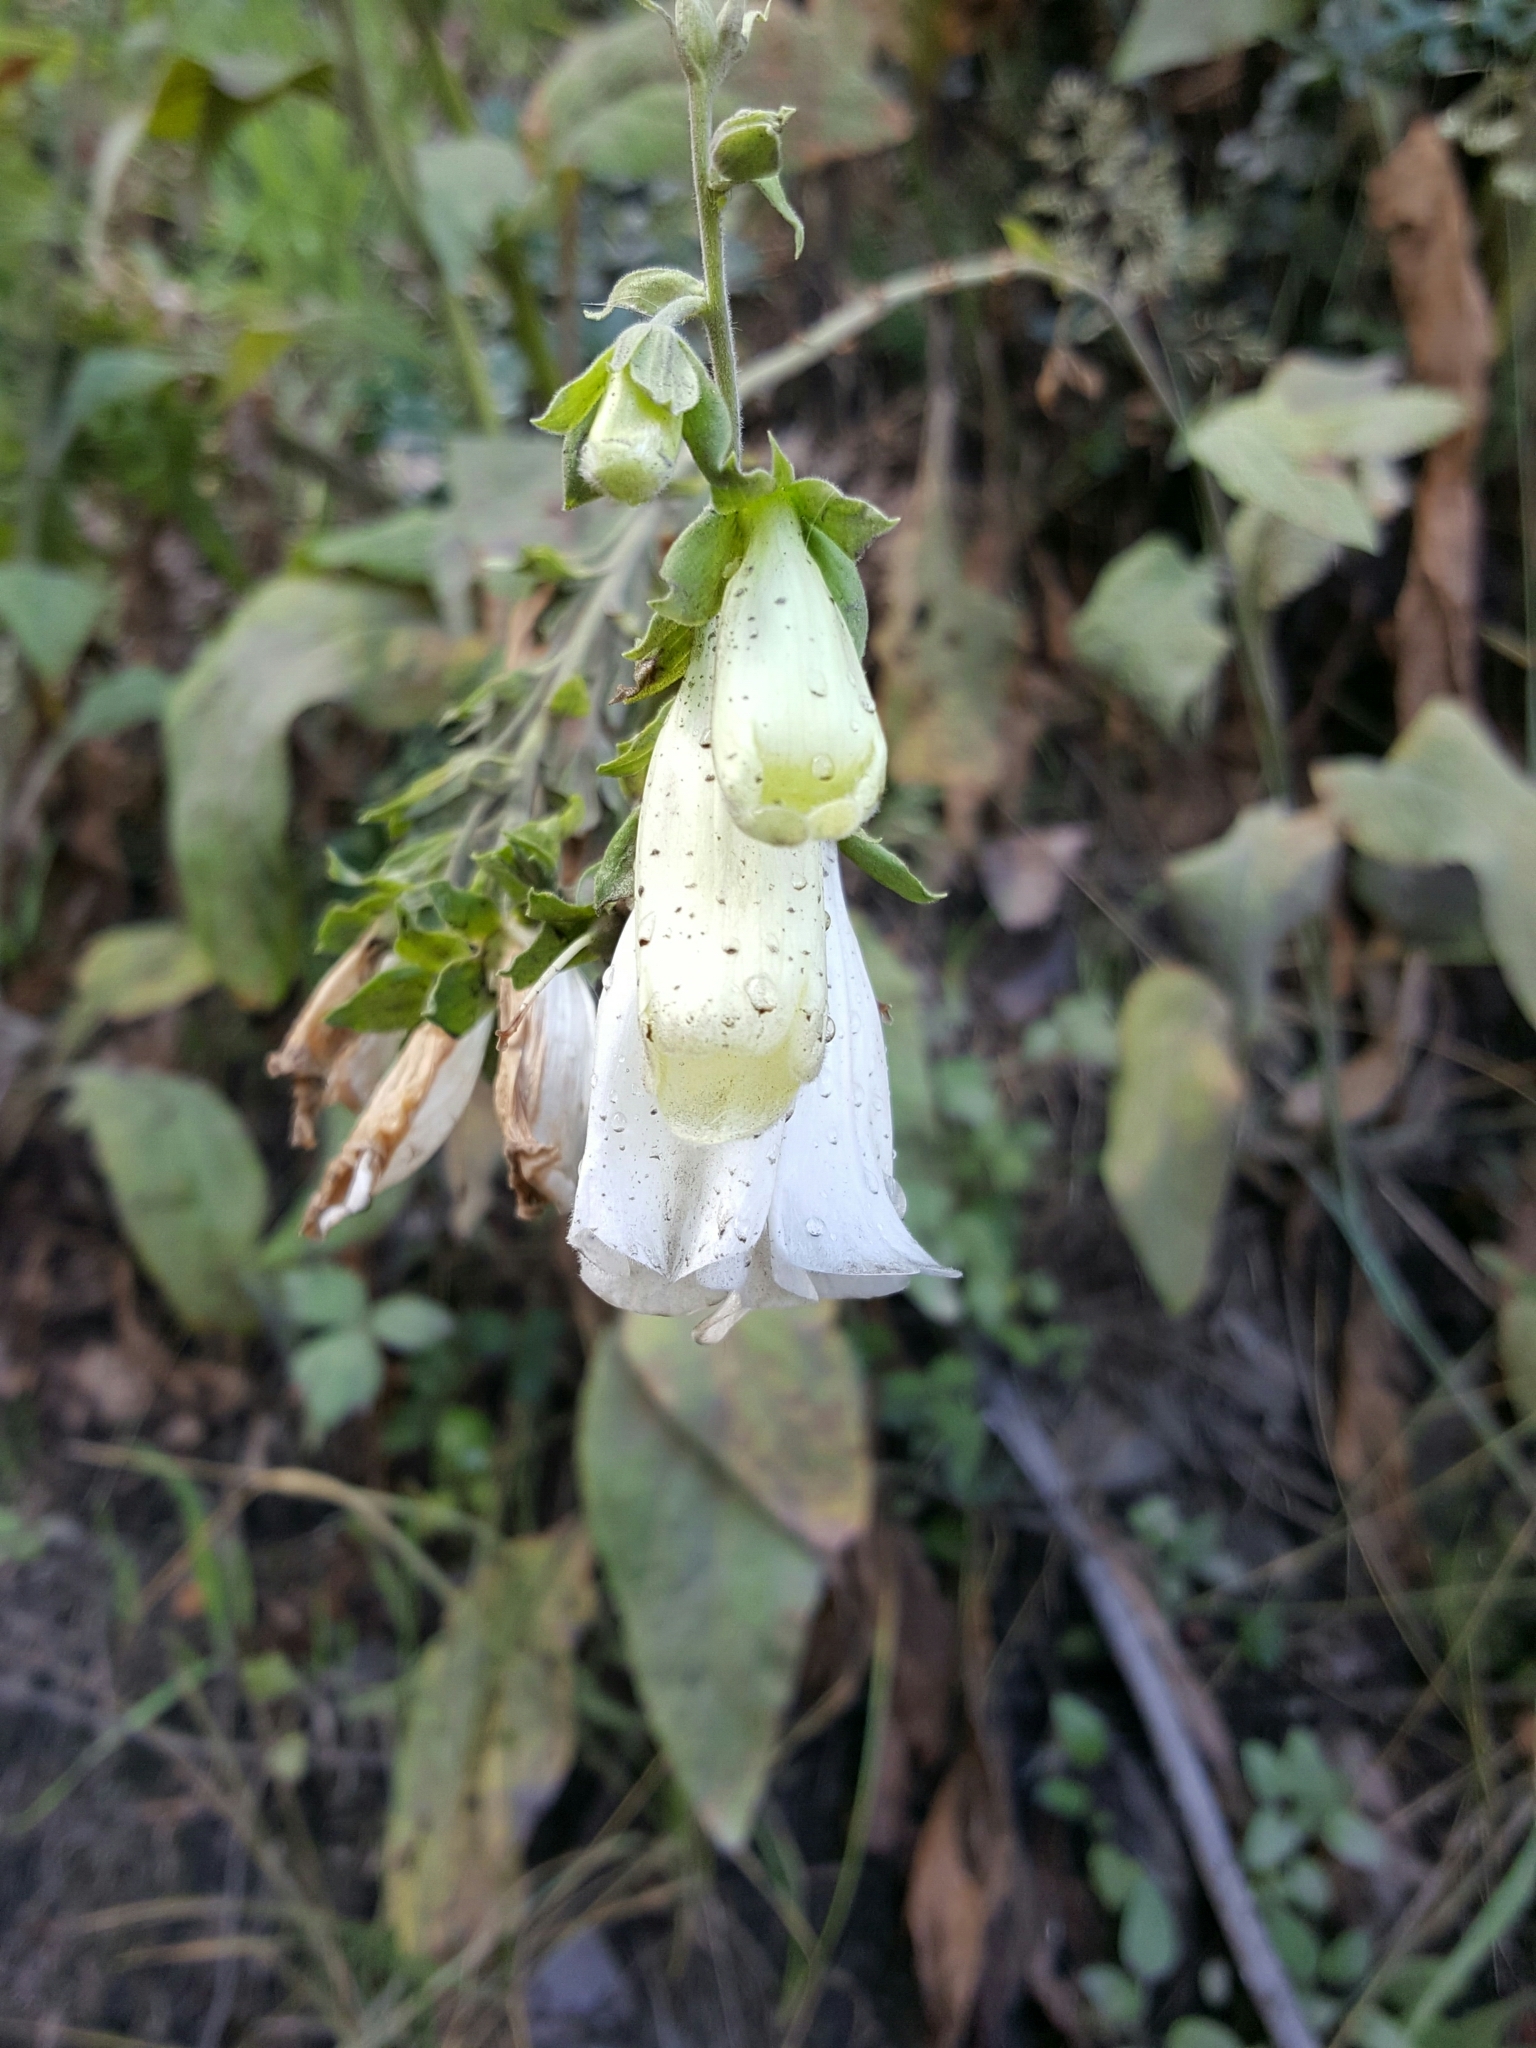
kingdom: Plantae
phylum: Tracheophyta
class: Magnoliopsida
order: Lamiales
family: Plantaginaceae
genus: Digitalis
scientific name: Digitalis purpurea
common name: Foxglove
